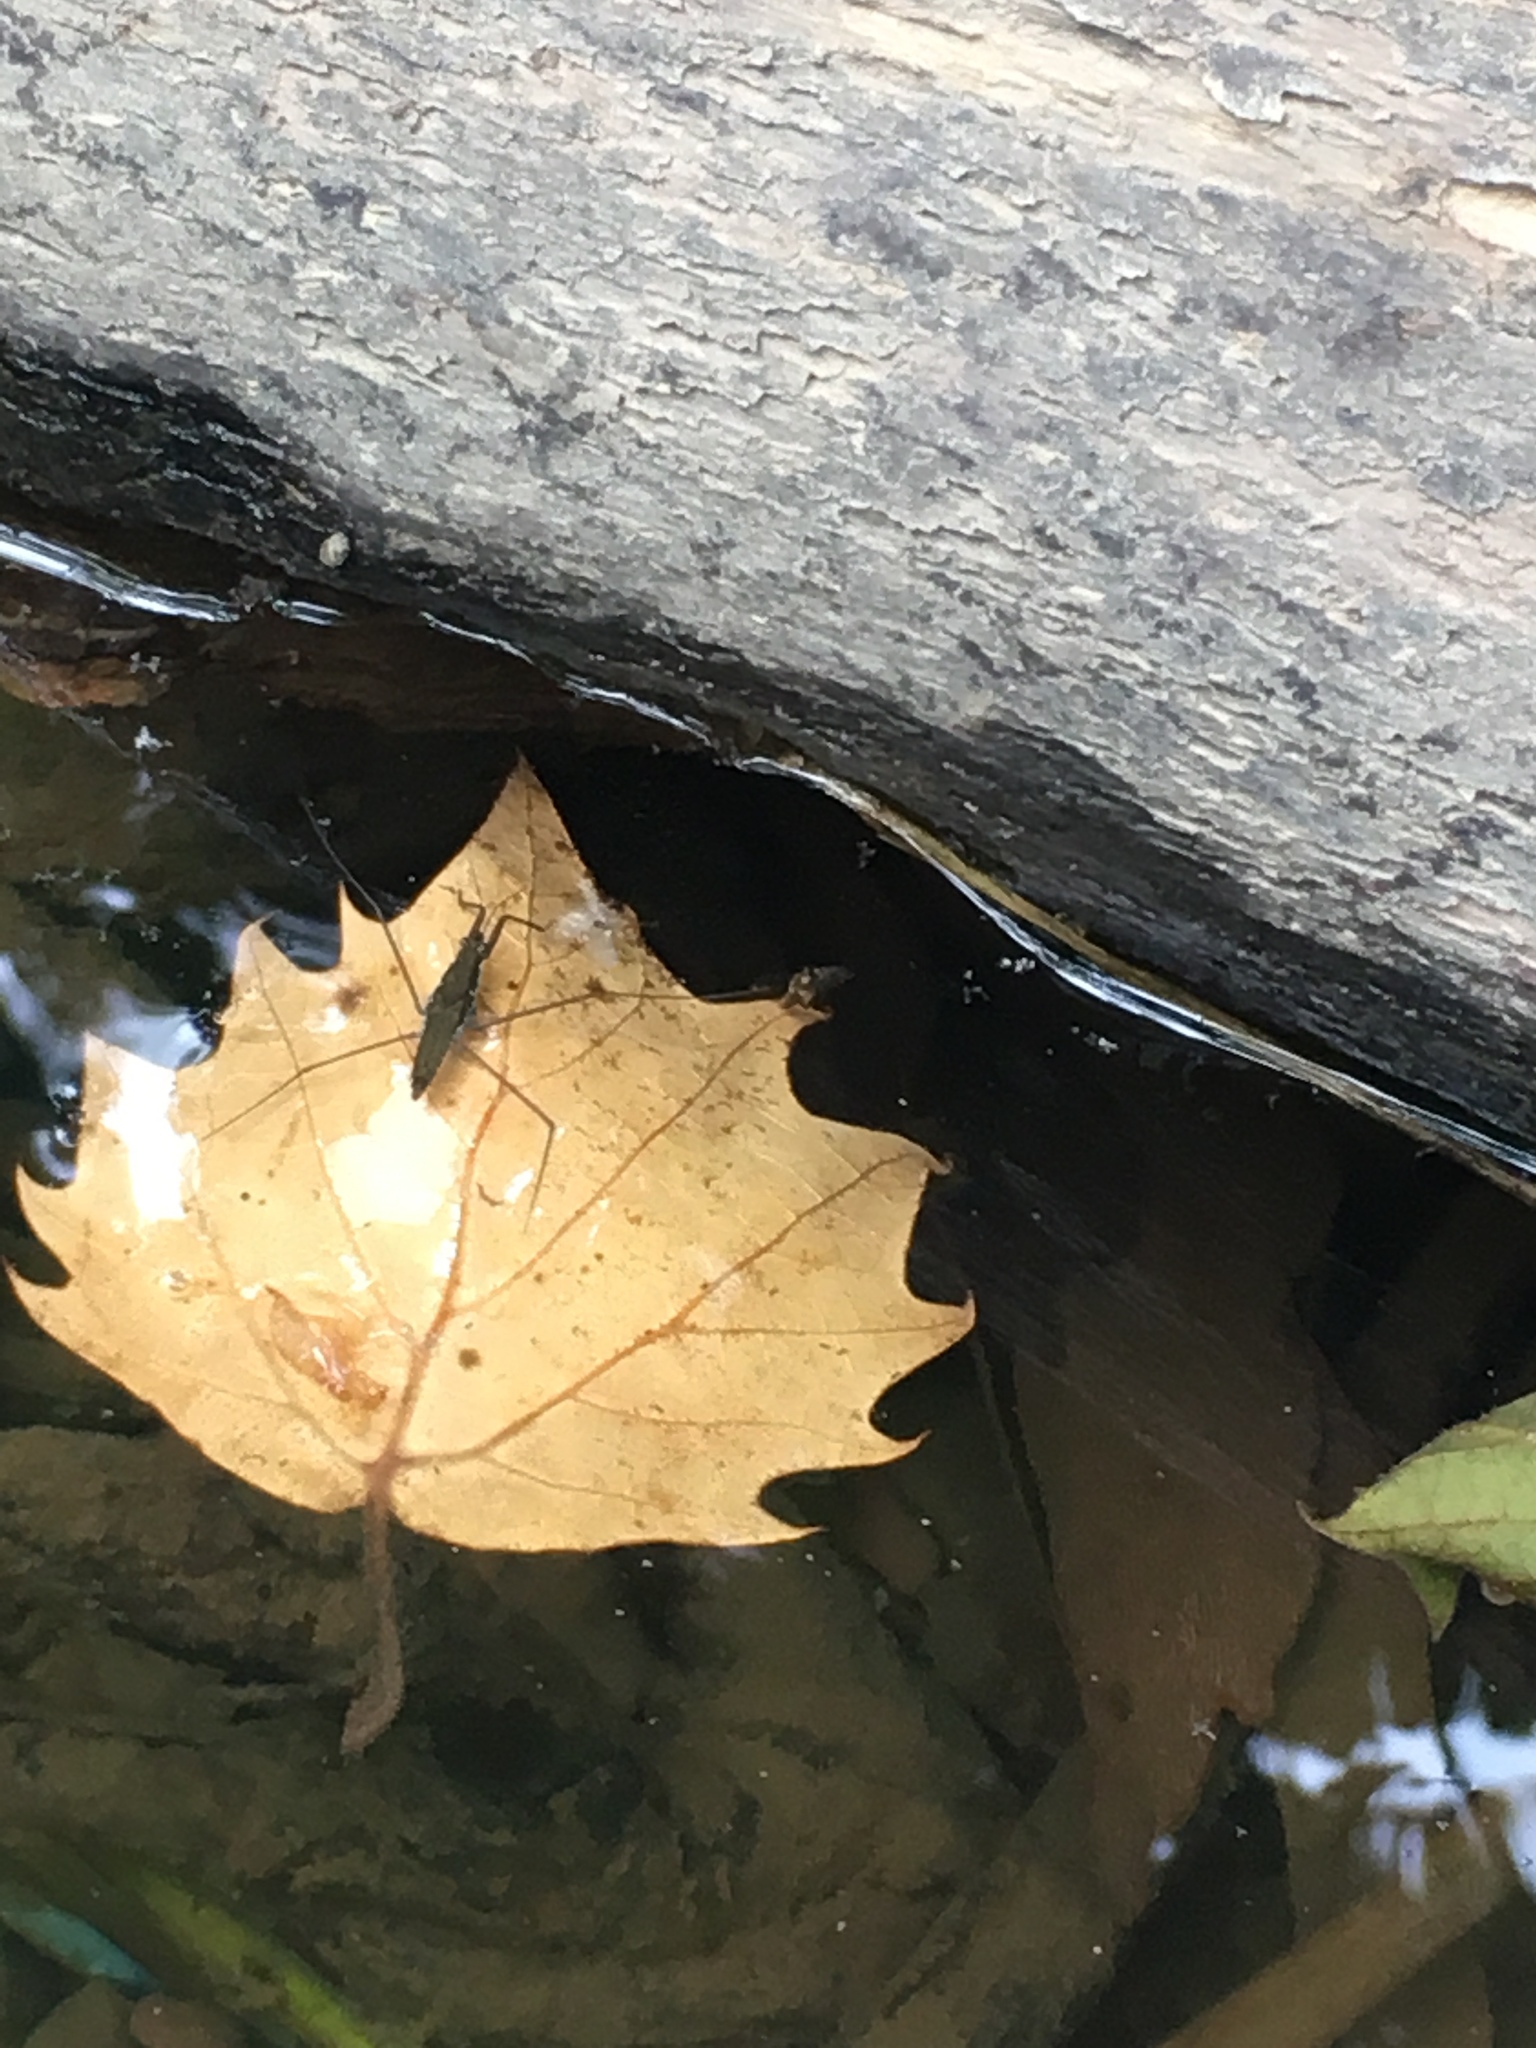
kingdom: Animalia
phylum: Arthropoda
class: Insecta
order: Hemiptera
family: Gerridae
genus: Aquarius
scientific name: Aquarius
